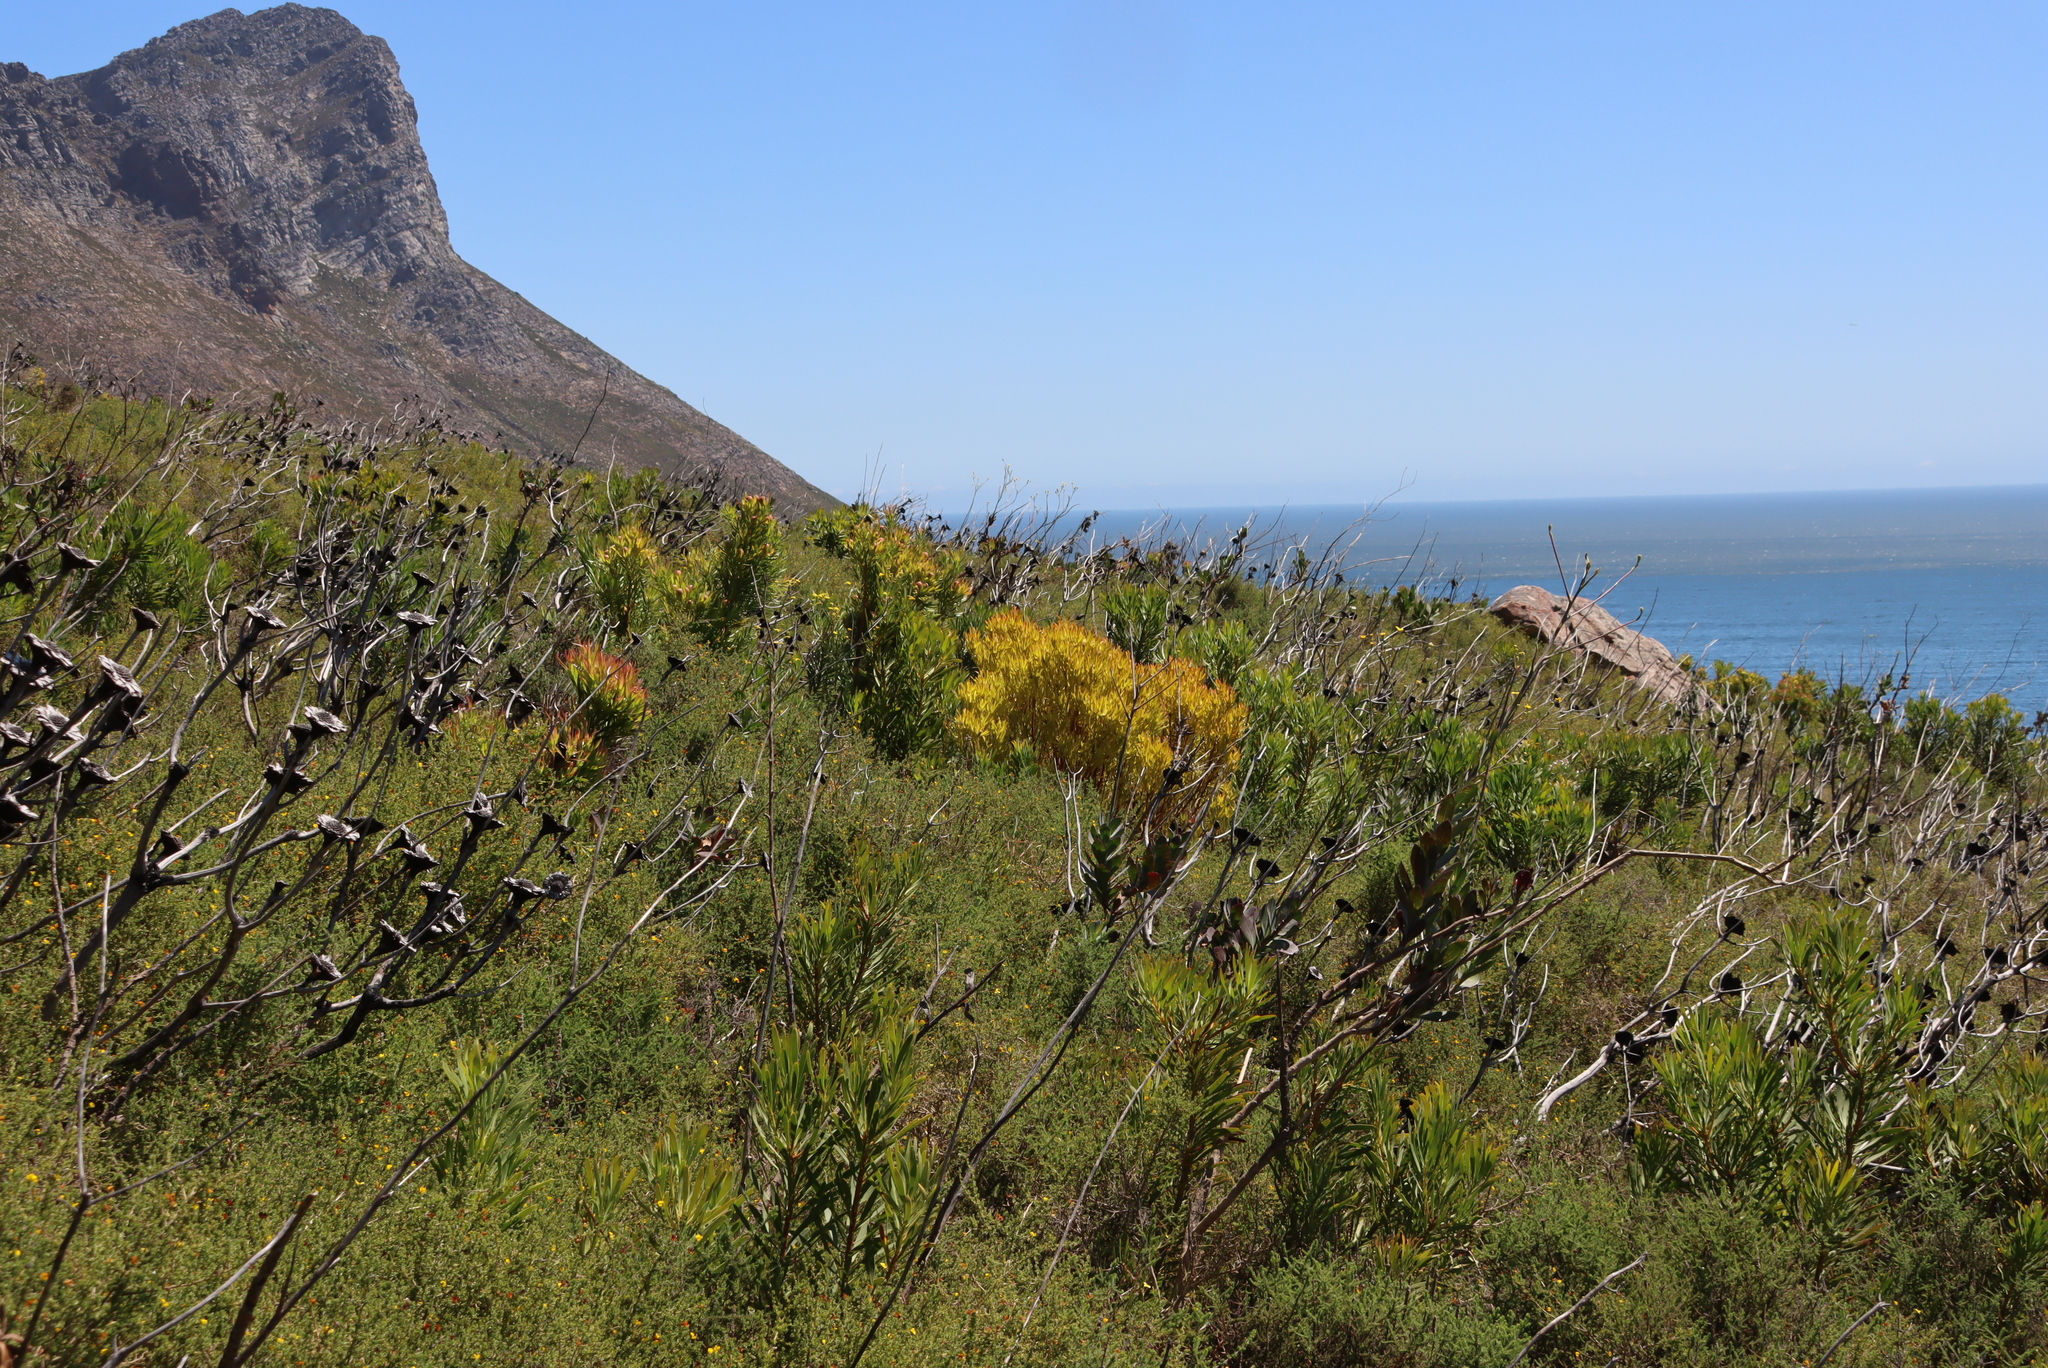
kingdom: Plantae
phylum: Tracheophyta
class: Magnoliopsida
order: Asterales
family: Asteraceae
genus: Othonna
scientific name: Othonna quinquedentata
